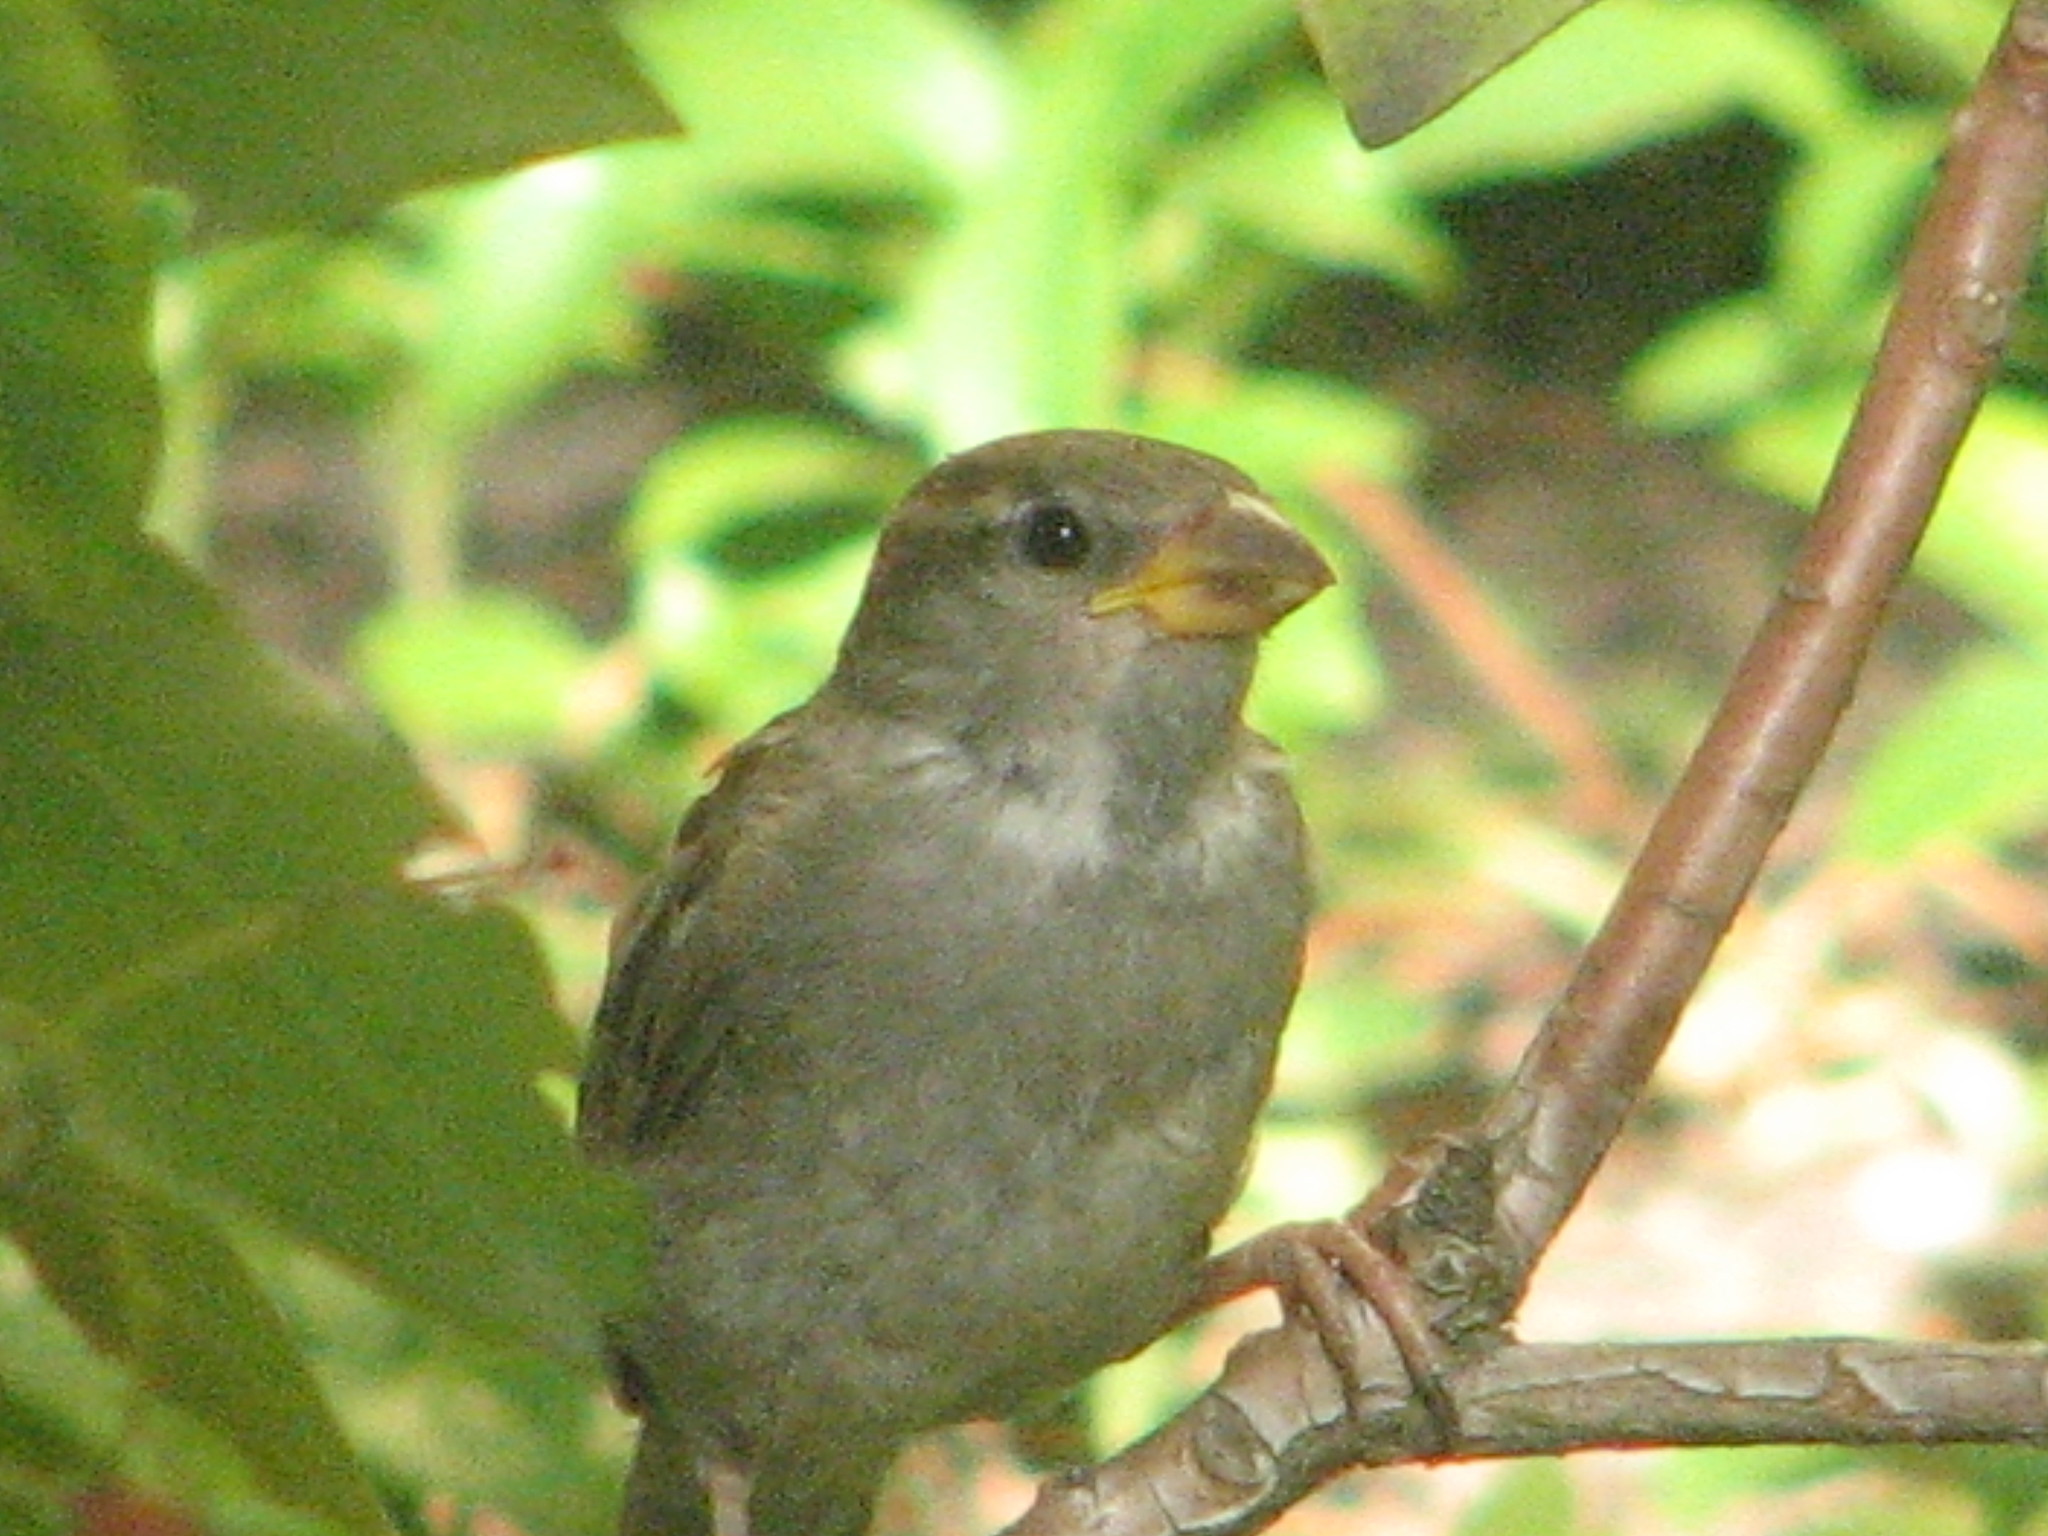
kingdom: Animalia
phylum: Chordata
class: Aves
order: Passeriformes
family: Passeridae
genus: Passer
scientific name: Passer domesticus
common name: House sparrow
